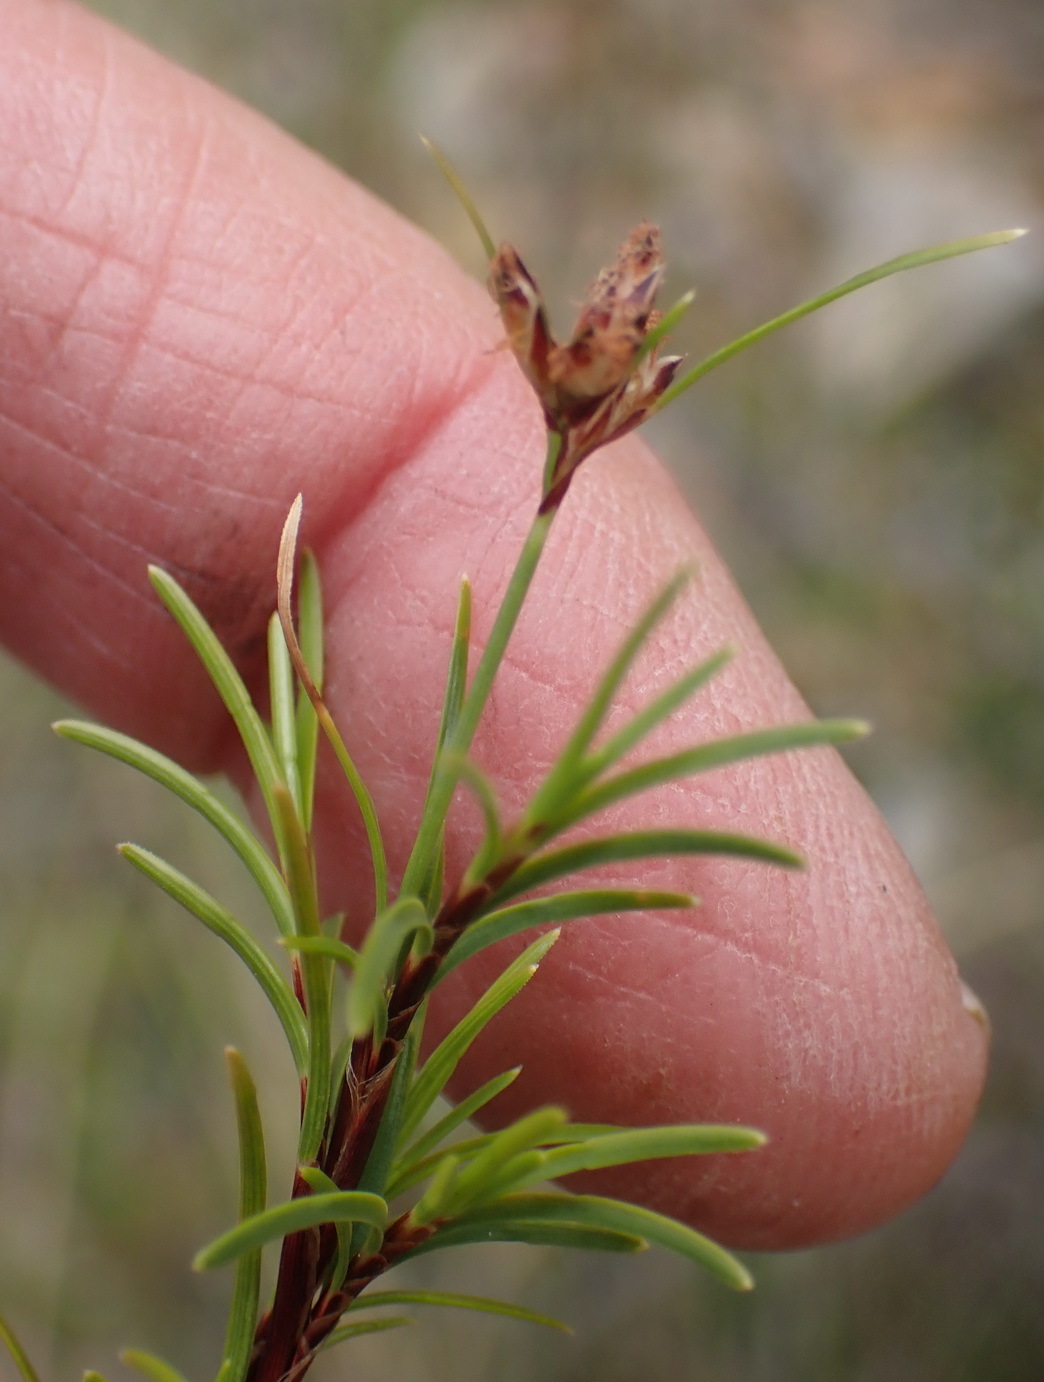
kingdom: Plantae
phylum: Tracheophyta
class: Liliopsida
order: Poales
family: Cyperaceae
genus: Ficinia
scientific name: Ficinia ramosissima
